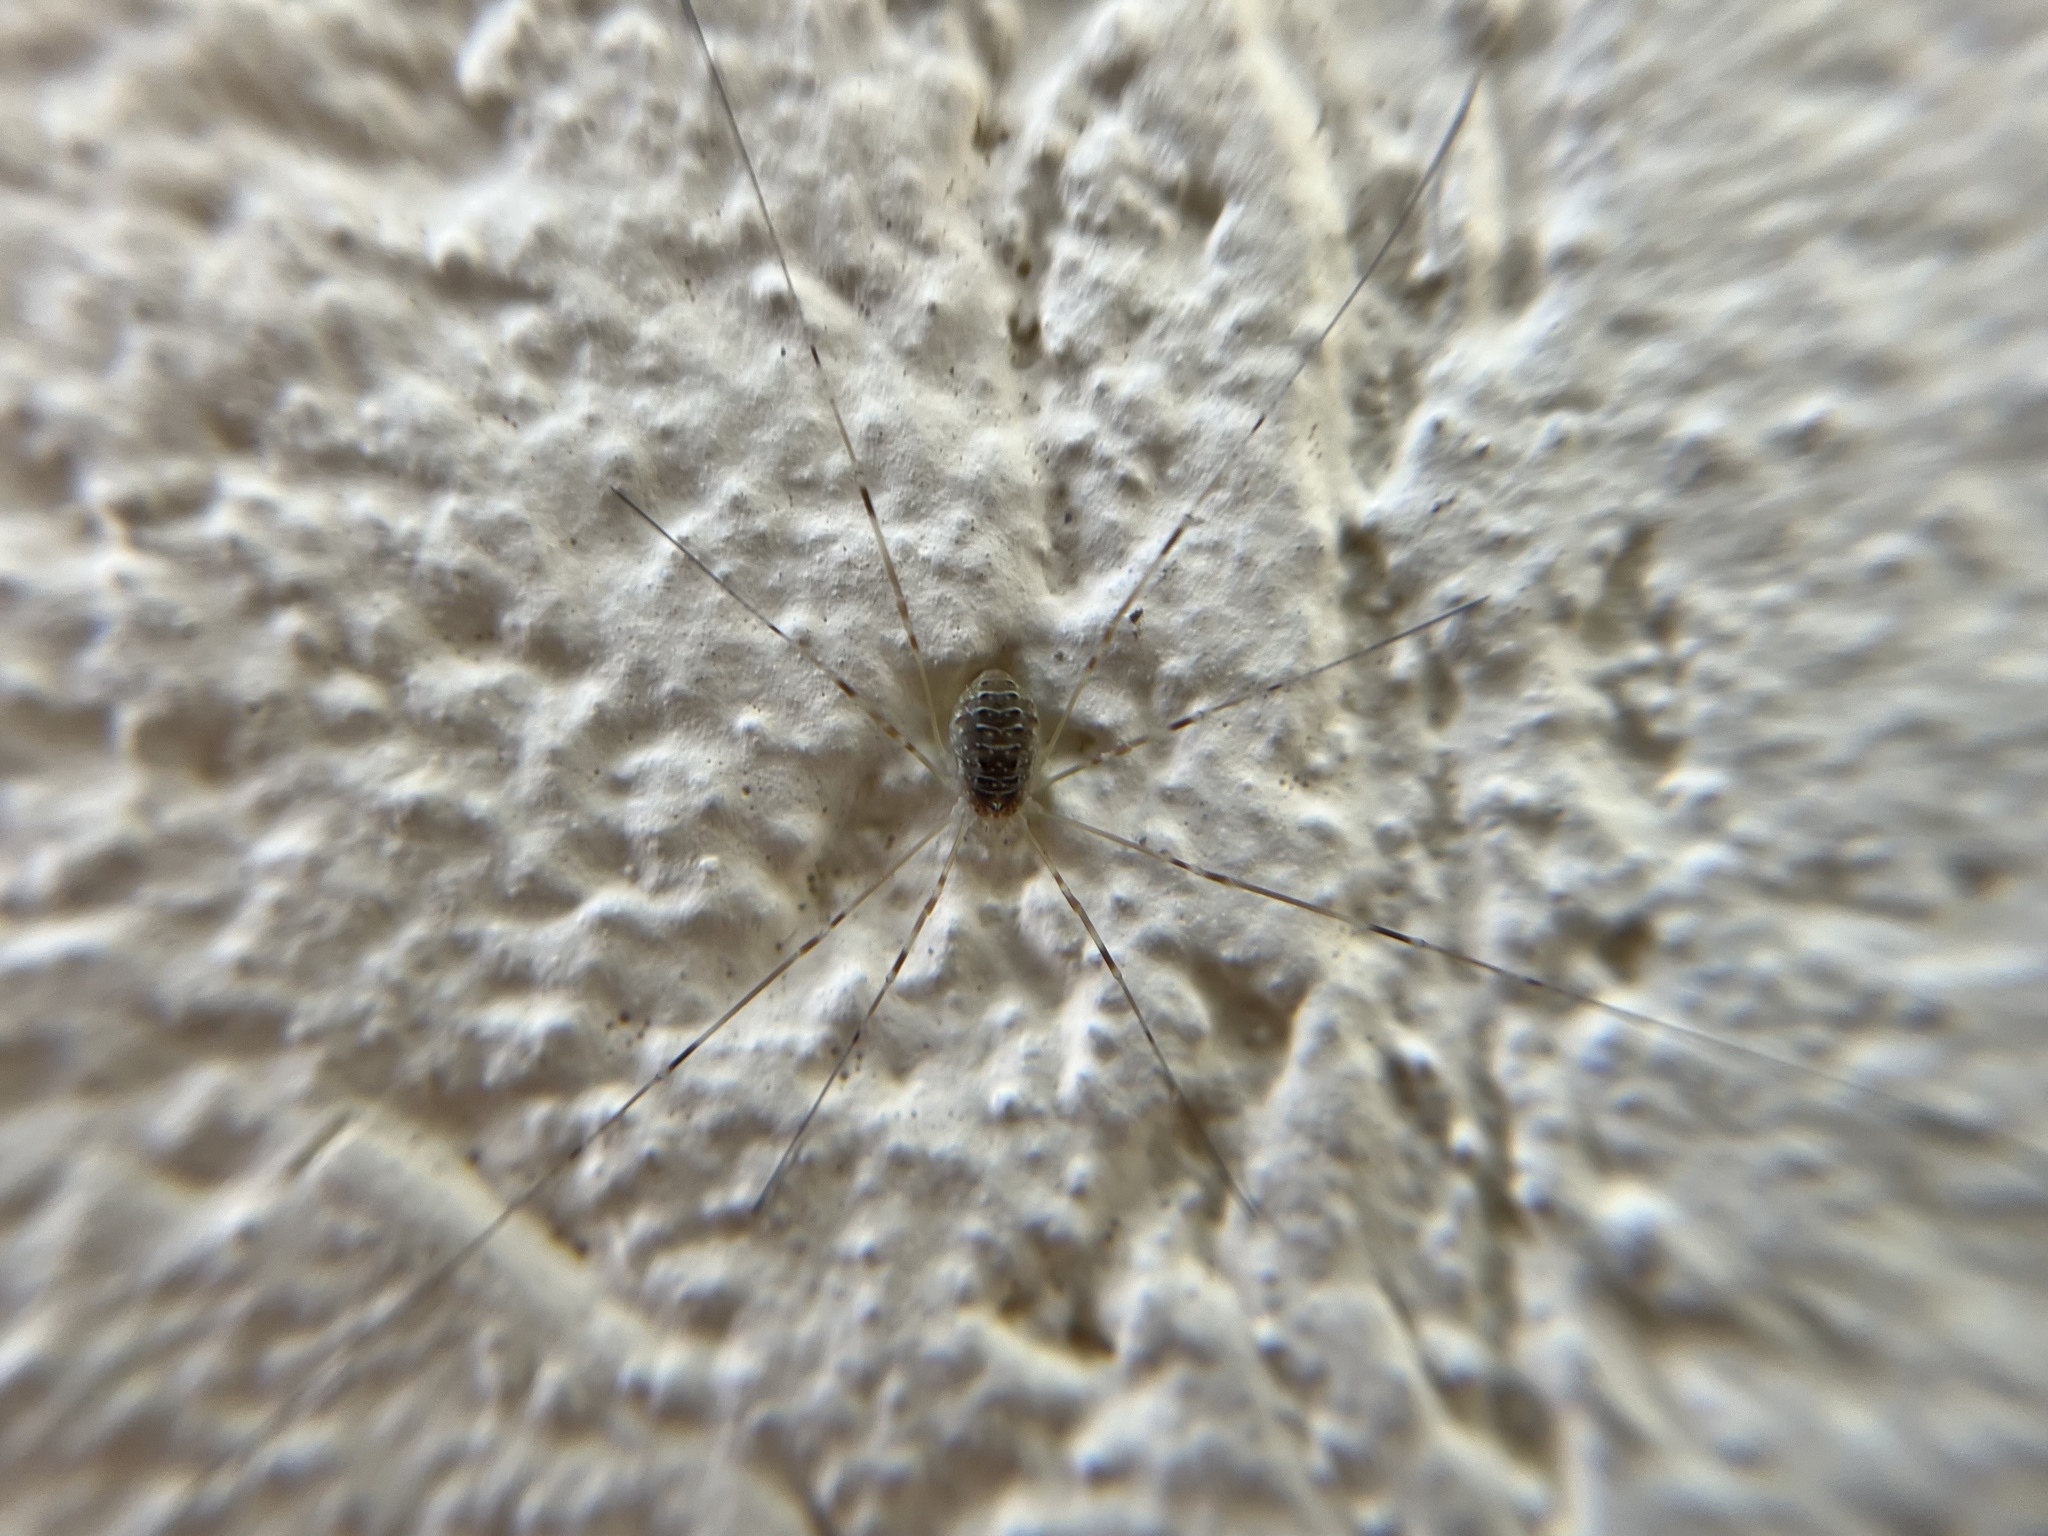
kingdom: Animalia
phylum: Arthropoda
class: Arachnida
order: Opiliones
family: Phalangiidae
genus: Opilio
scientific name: Opilio canestrinii
